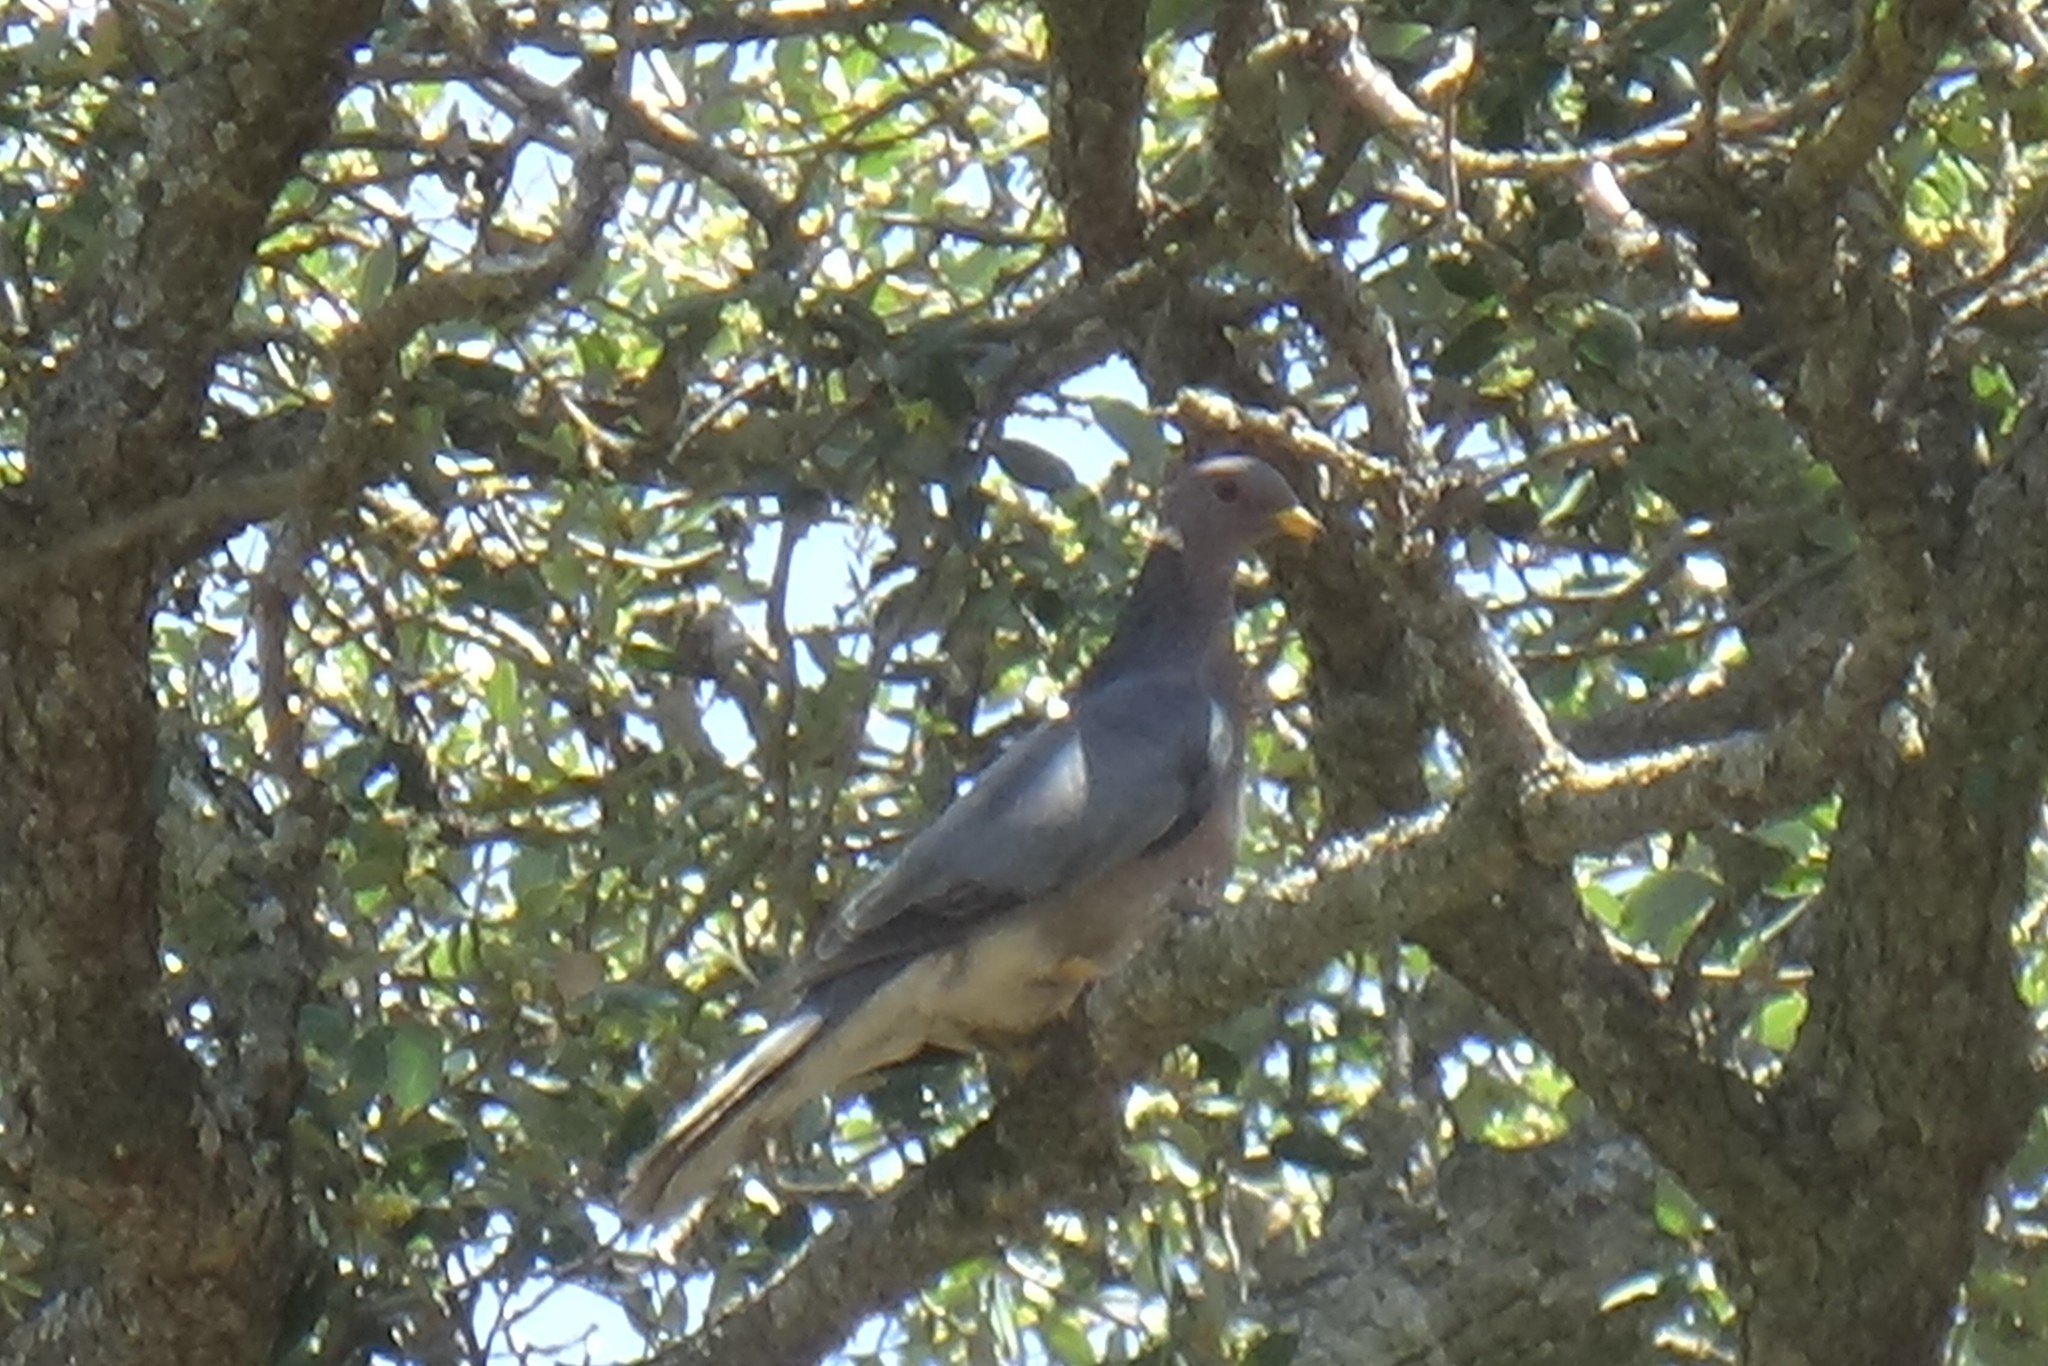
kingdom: Animalia
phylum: Chordata
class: Aves
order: Columbiformes
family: Columbidae
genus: Patagioenas
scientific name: Patagioenas fasciata
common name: Band-tailed pigeon
